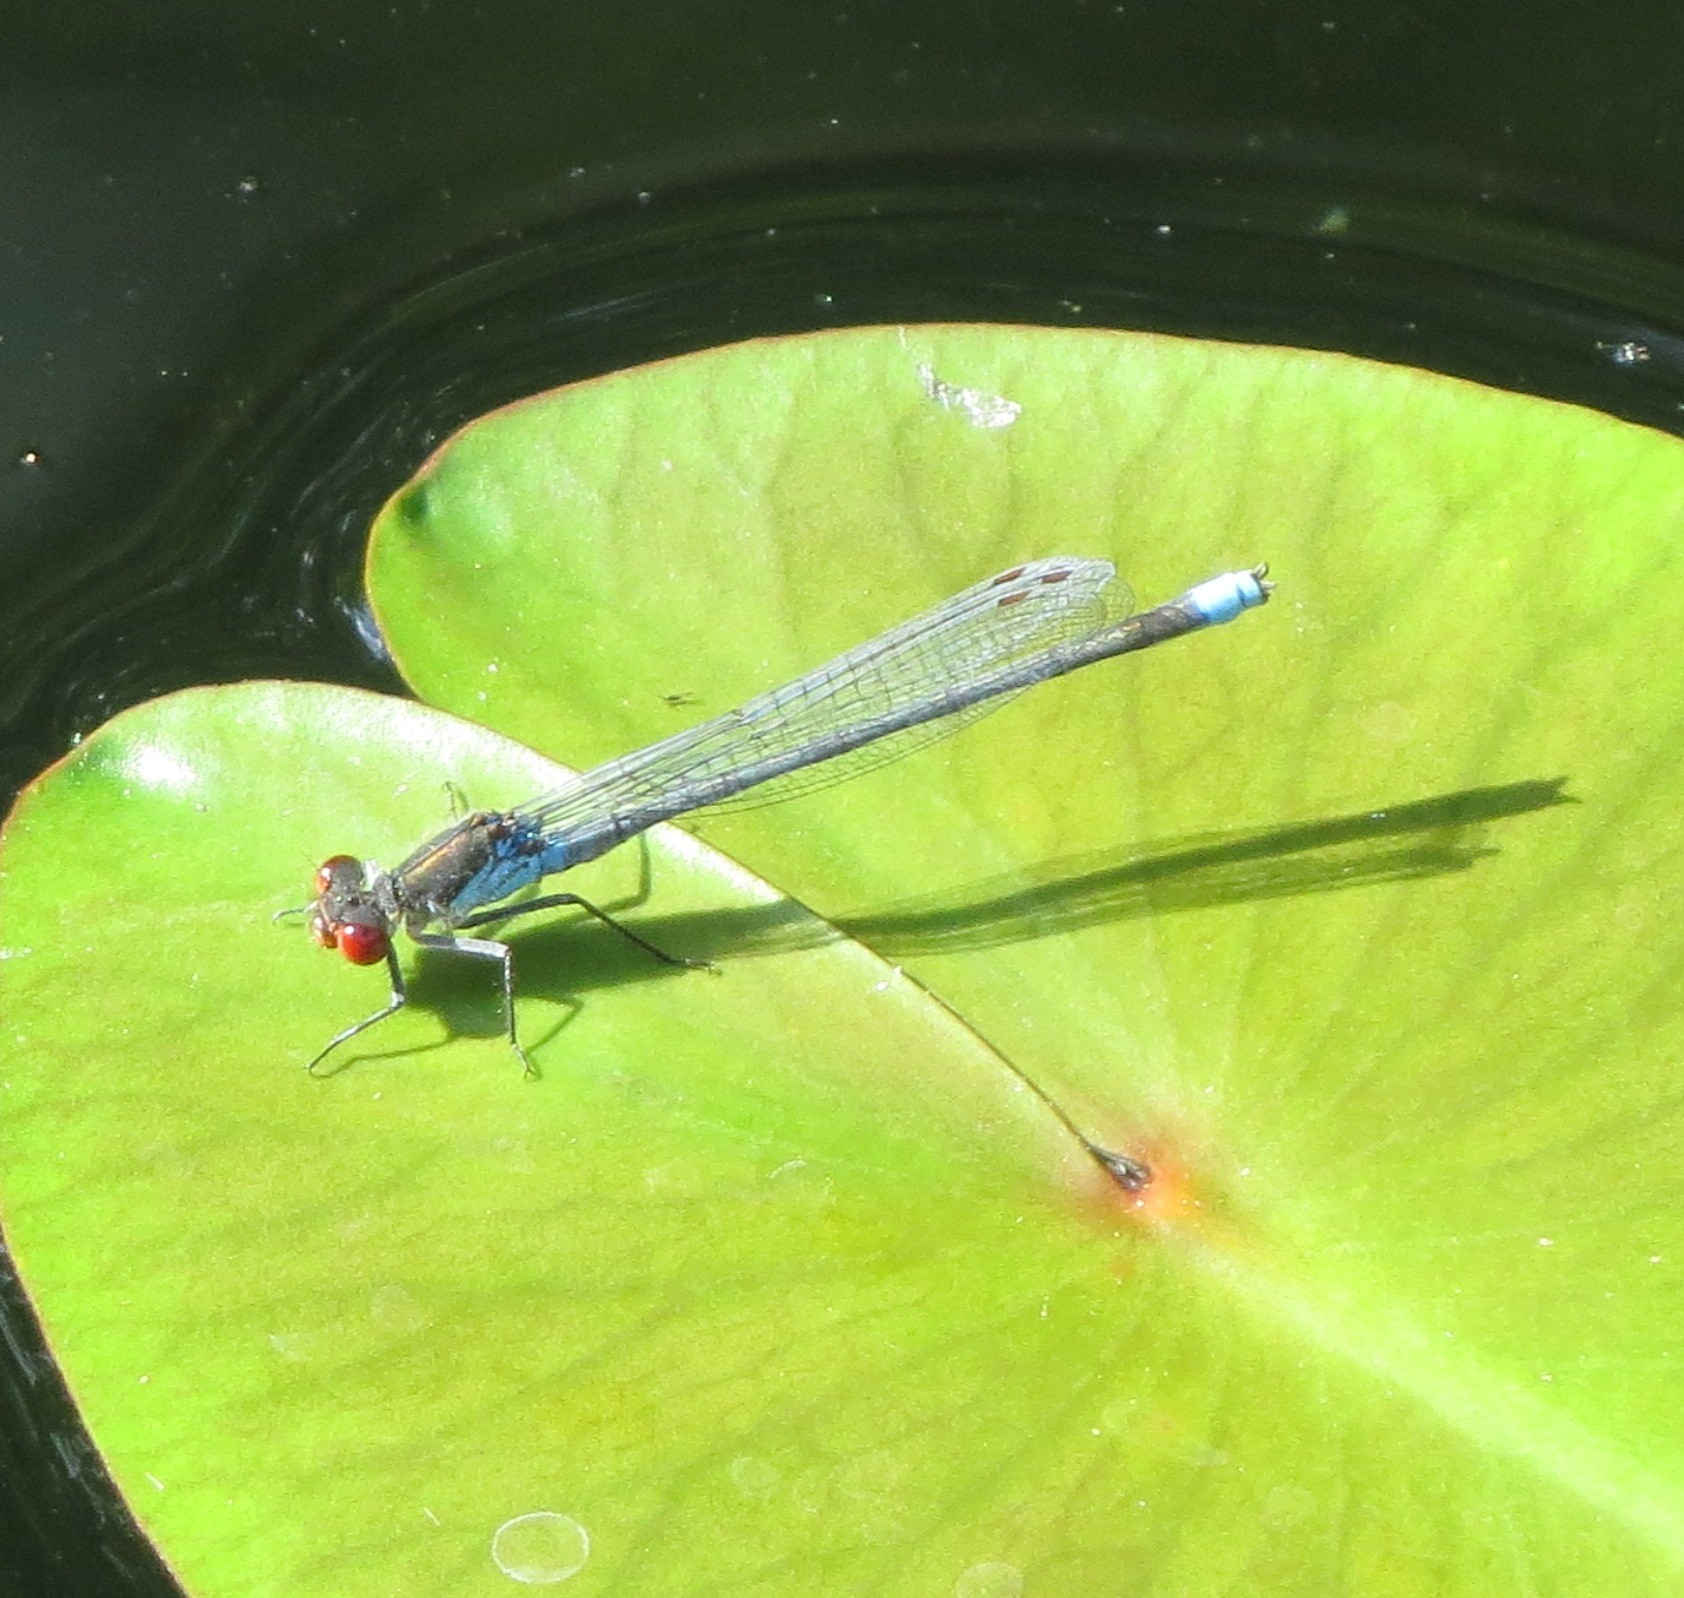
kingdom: Animalia
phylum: Arthropoda
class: Insecta
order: Odonata
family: Coenagrionidae
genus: Erythromma
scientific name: Erythromma najas
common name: Red-eyed damselfly
